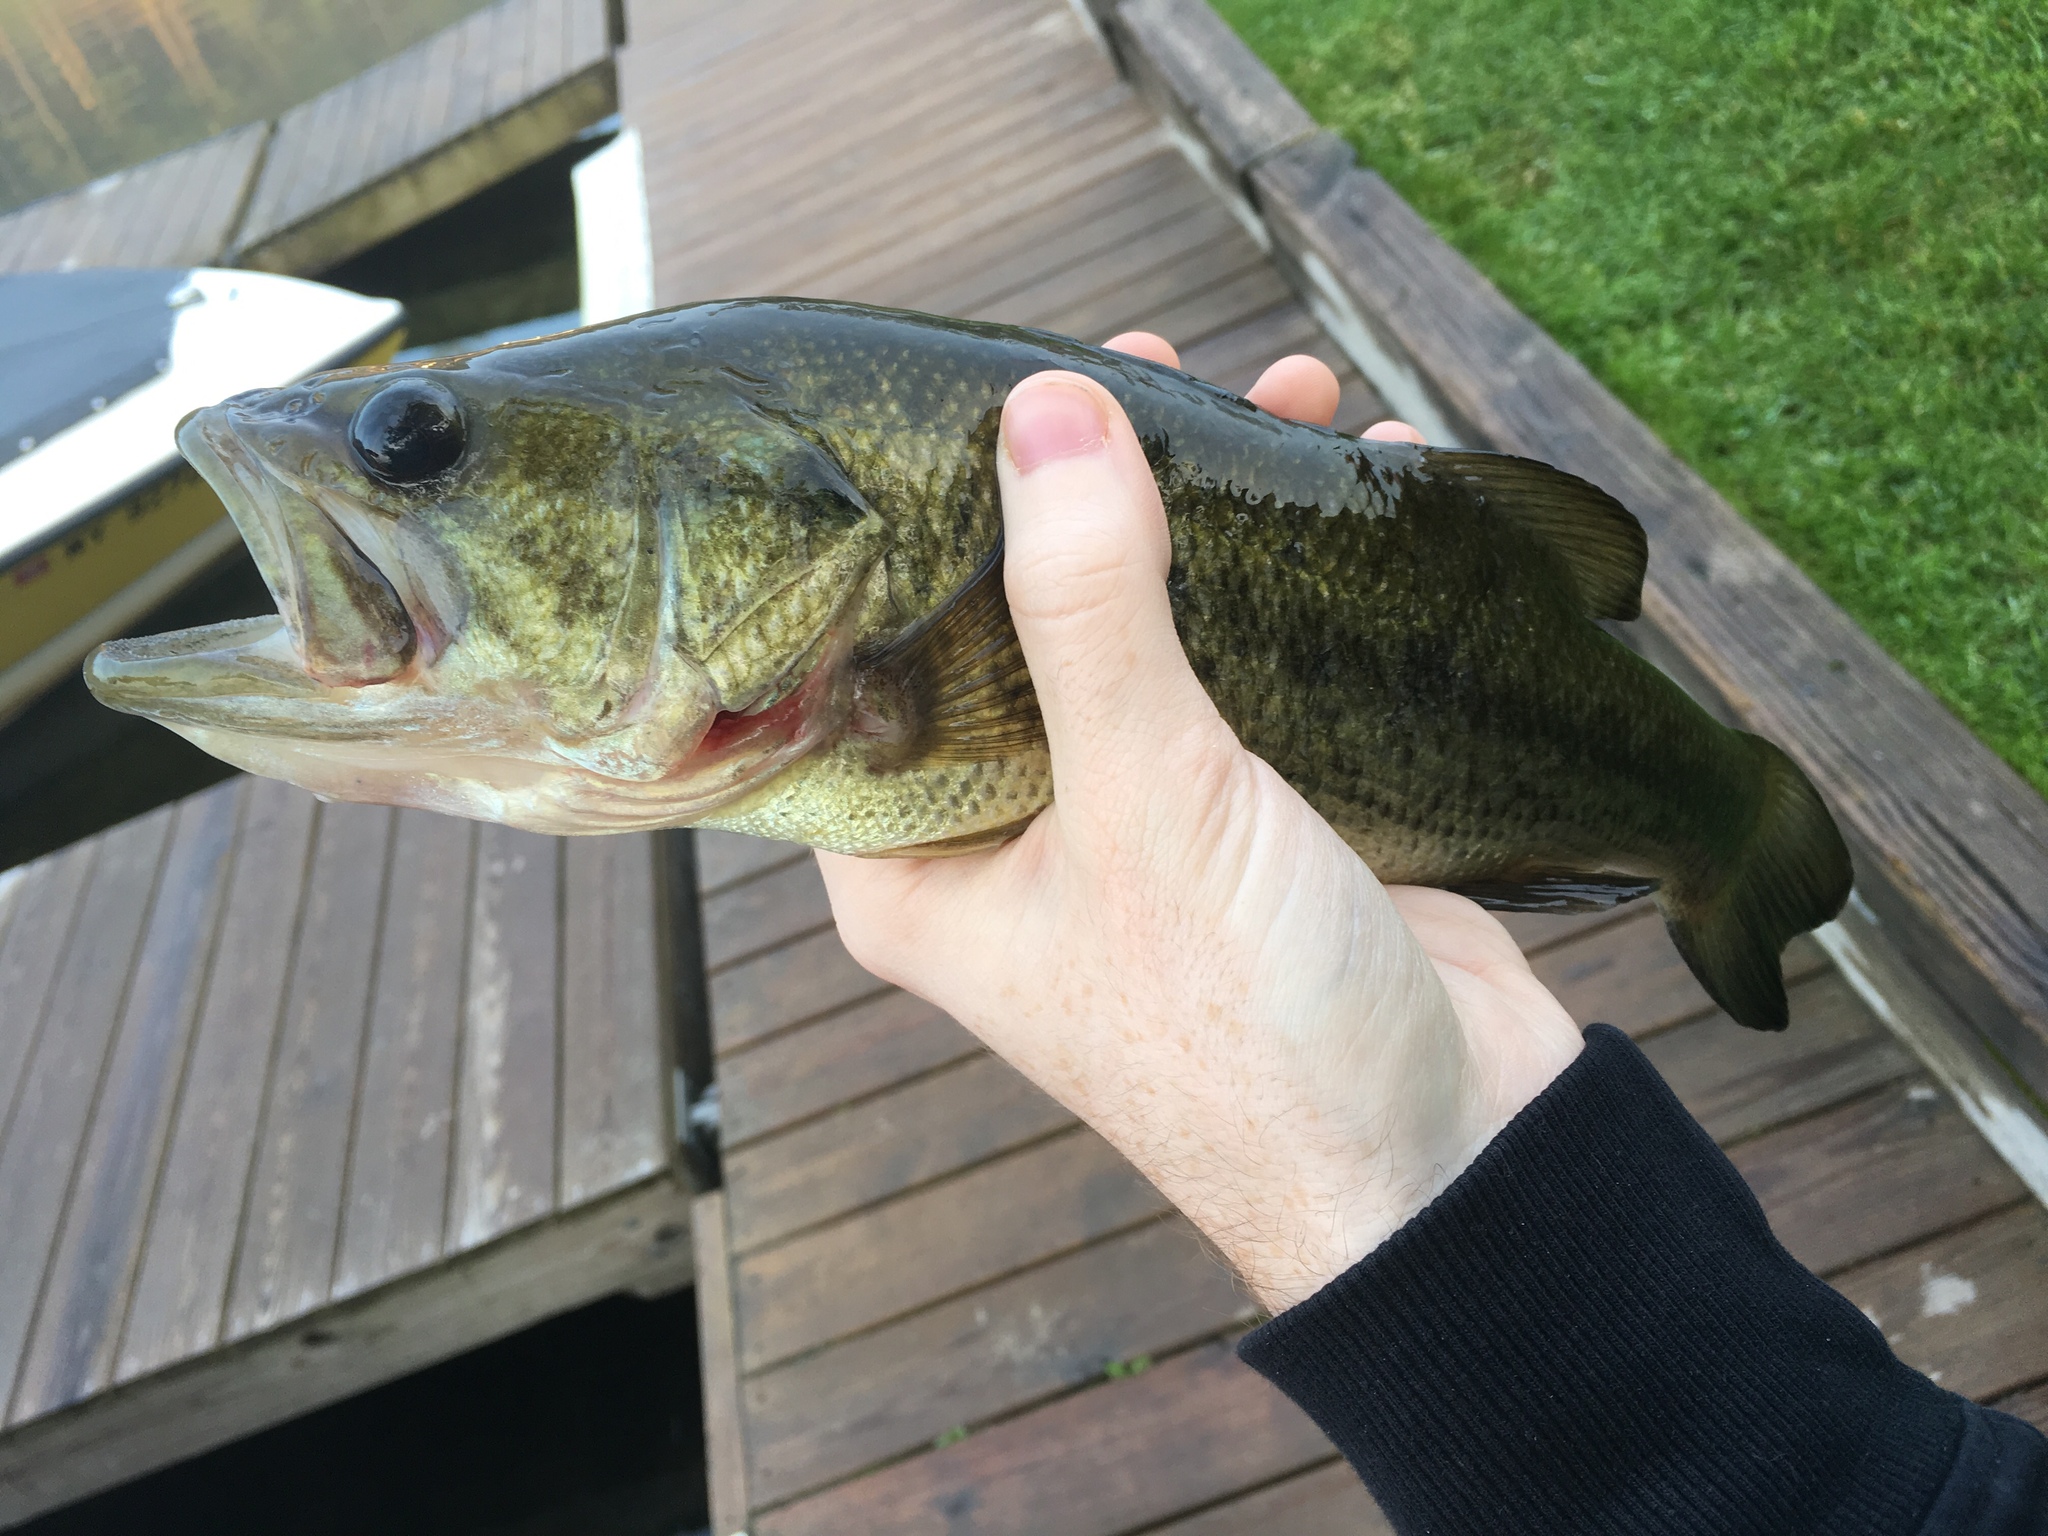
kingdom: Animalia
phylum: Chordata
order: Perciformes
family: Centrarchidae
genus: Micropterus
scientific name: Micropterus
